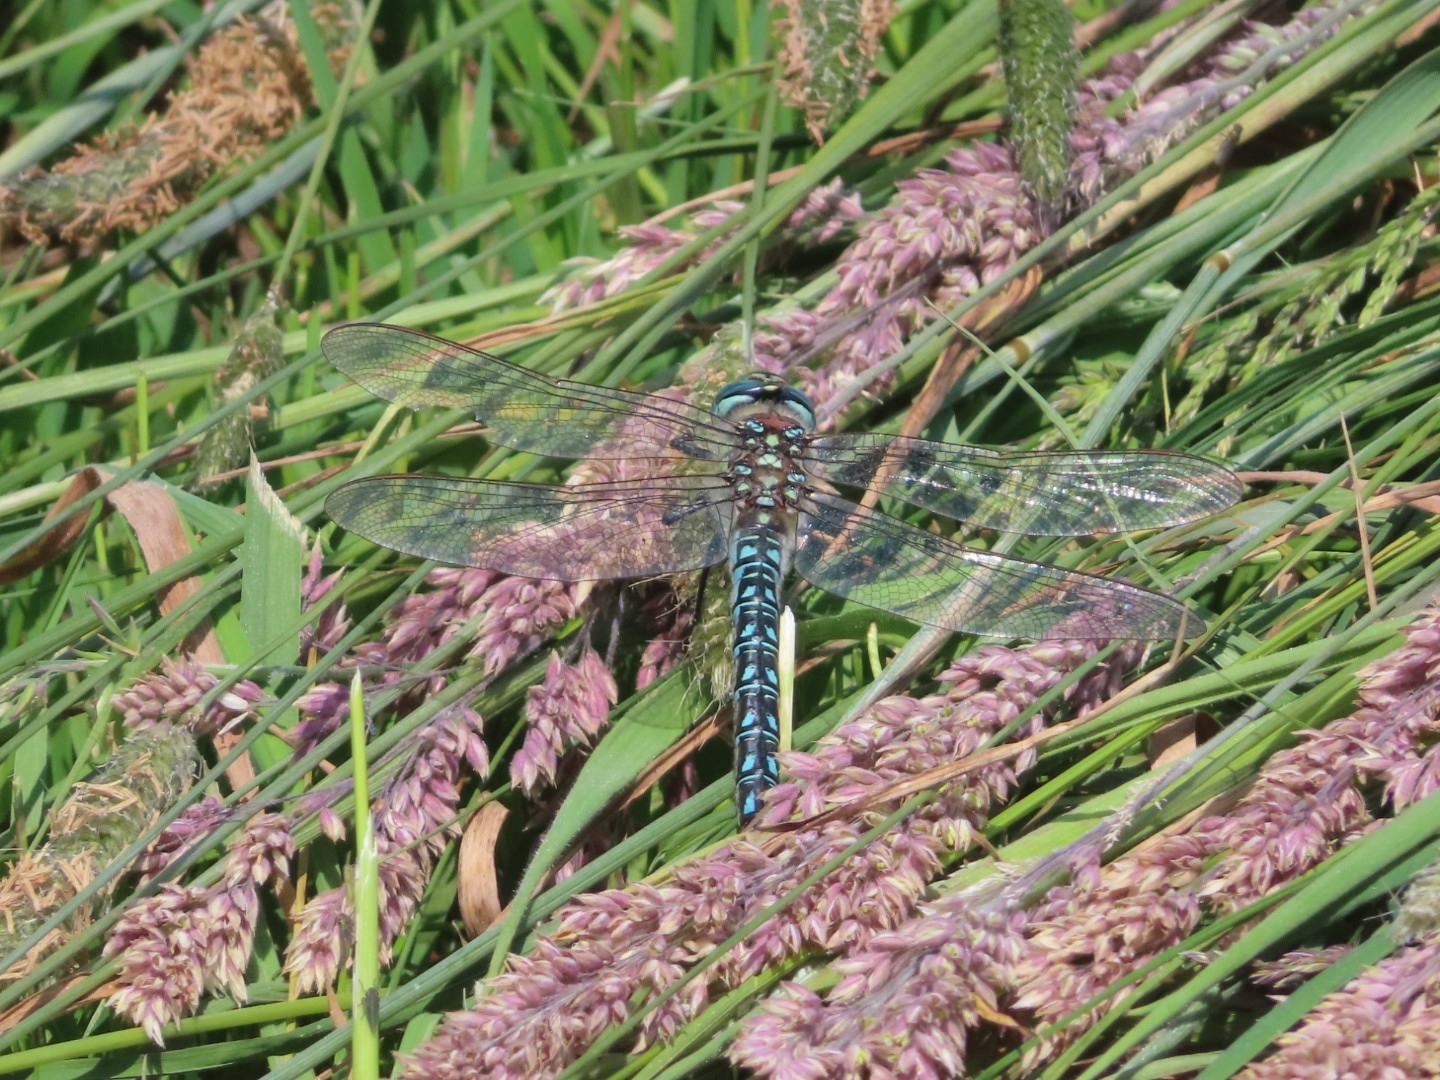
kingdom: Animalia
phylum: Arthropoda
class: Insecta
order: Odonata
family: Aeshnidae
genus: Brachytron
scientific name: Brachytron pratense
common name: Hairy hawker
